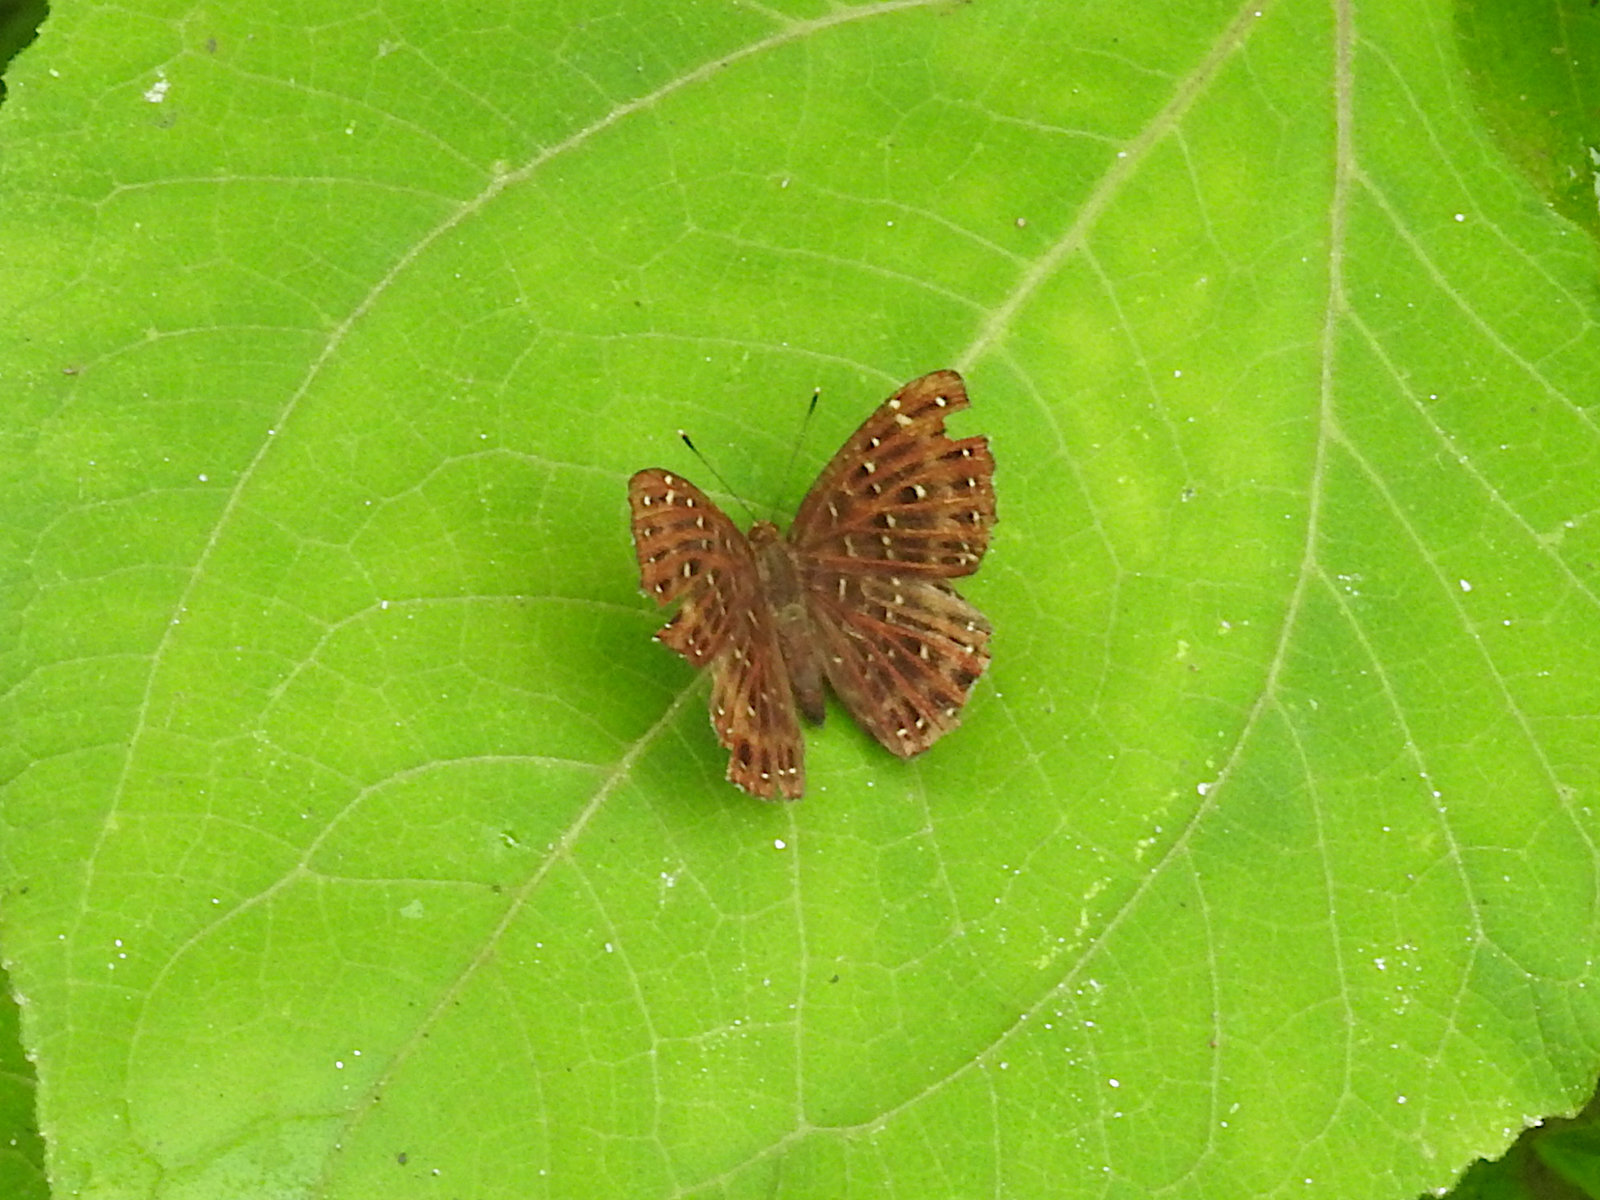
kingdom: Animalia
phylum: Arthropoda
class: Insecta
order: Lepidoptera
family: Riodinidae
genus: Zemeros
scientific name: Zemeros flegyas
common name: Punchinello
